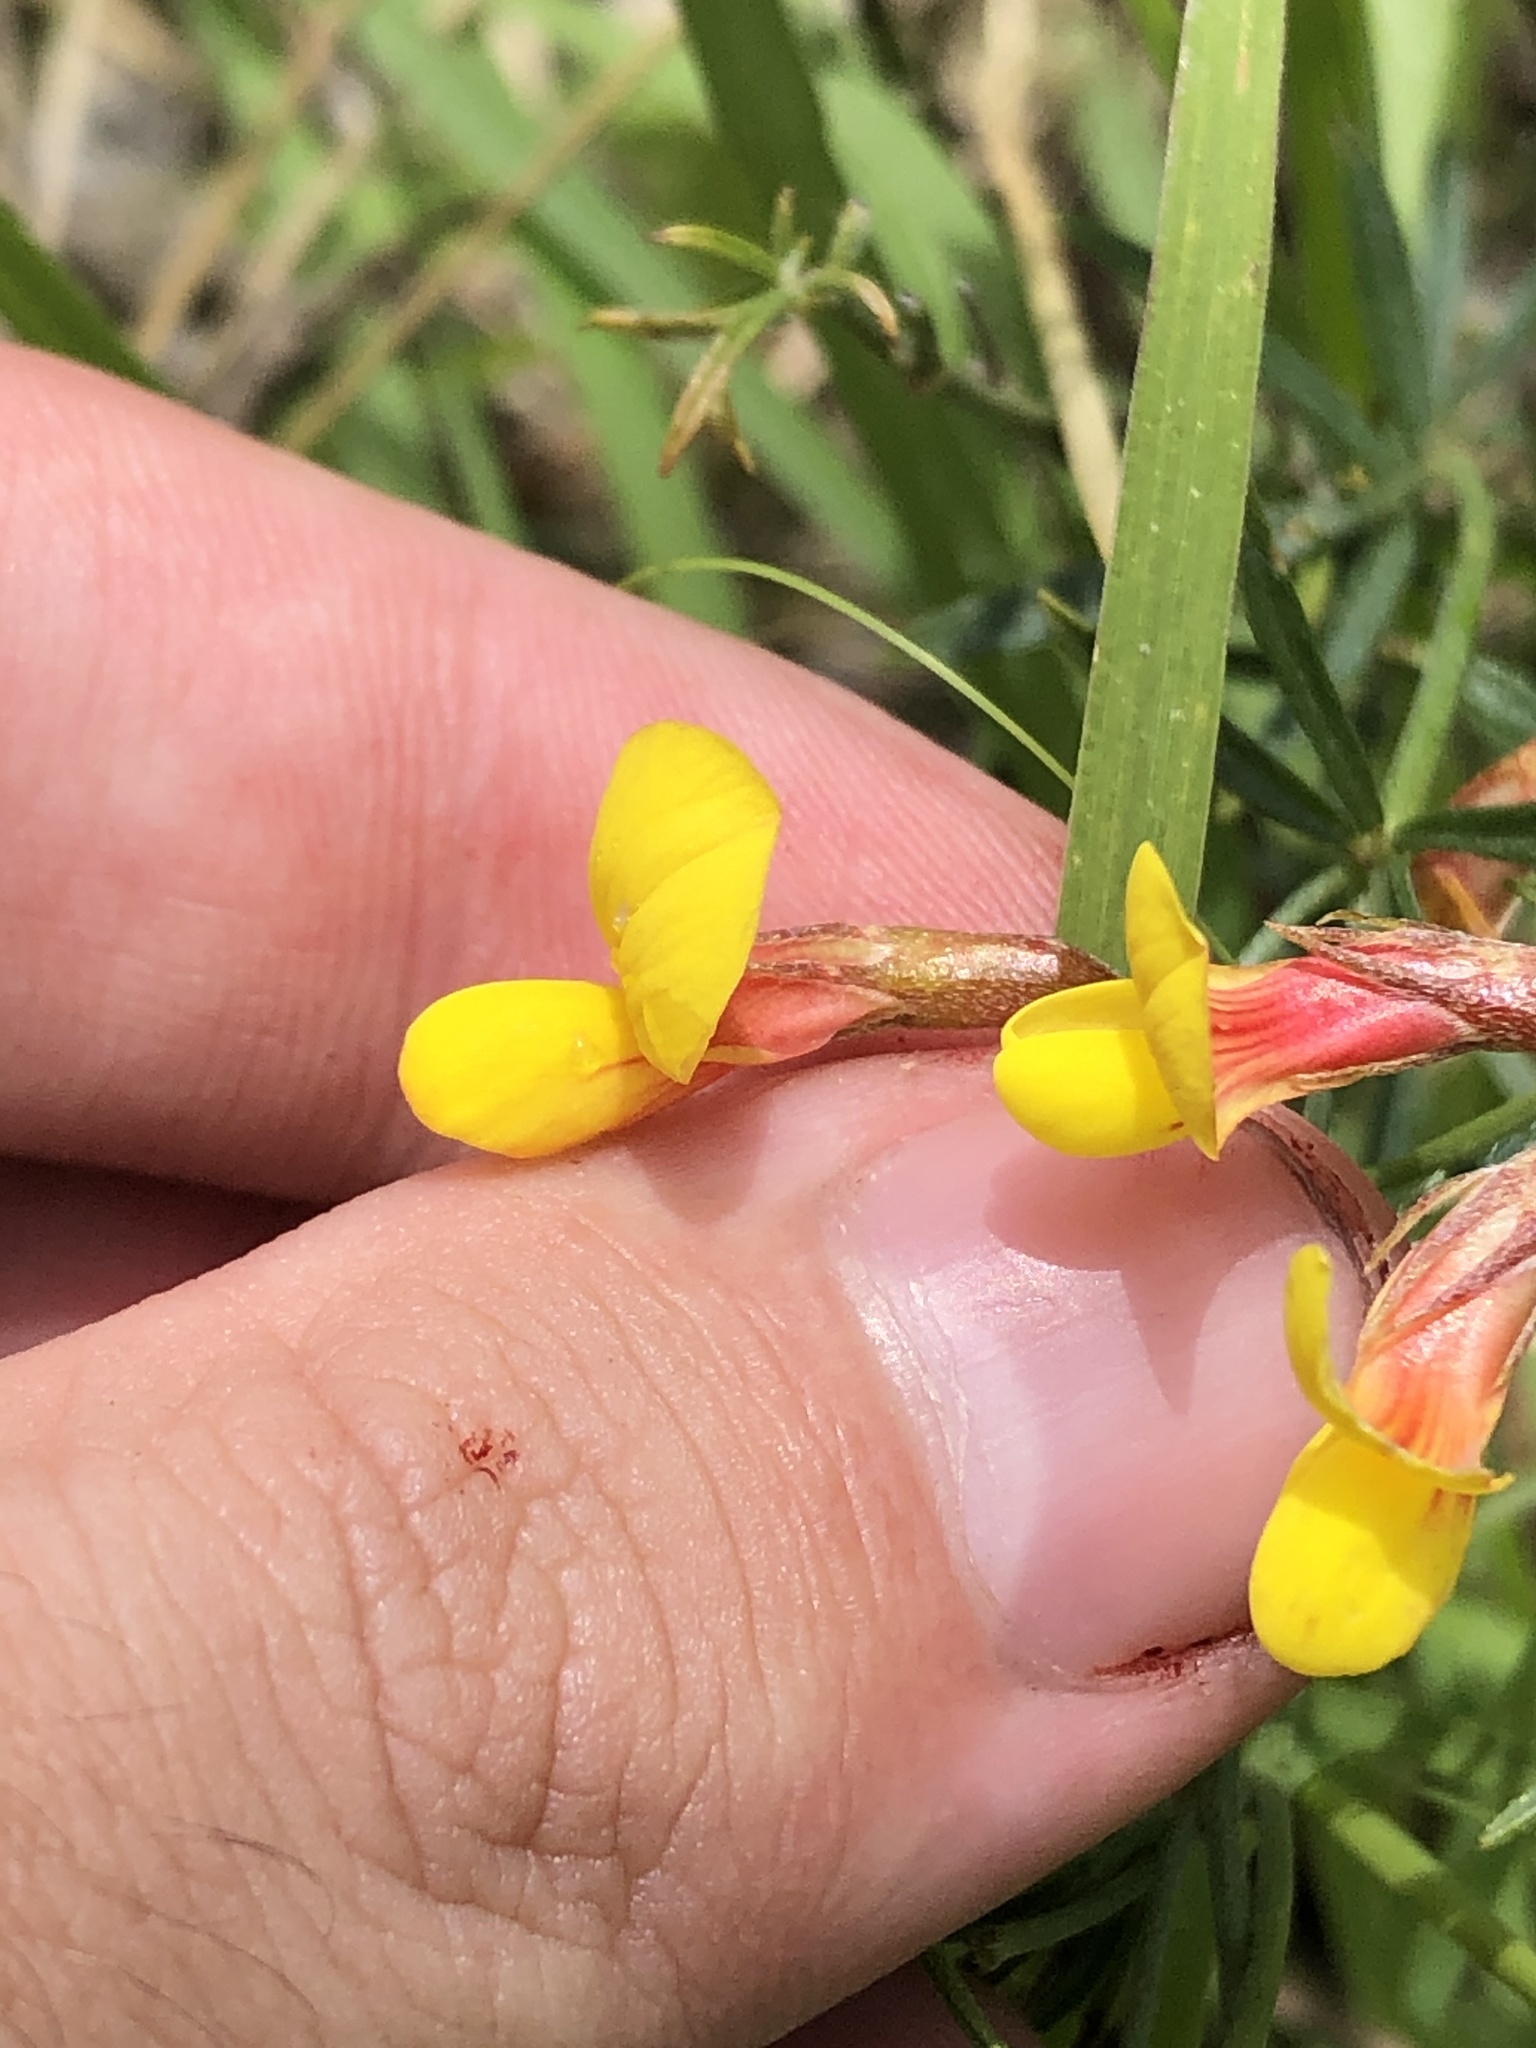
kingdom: Plantae
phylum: Tracheophyta
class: Magnoliopsida
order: Fabales
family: Fabaceae
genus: Acmispon
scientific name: Acmispon oroboides
